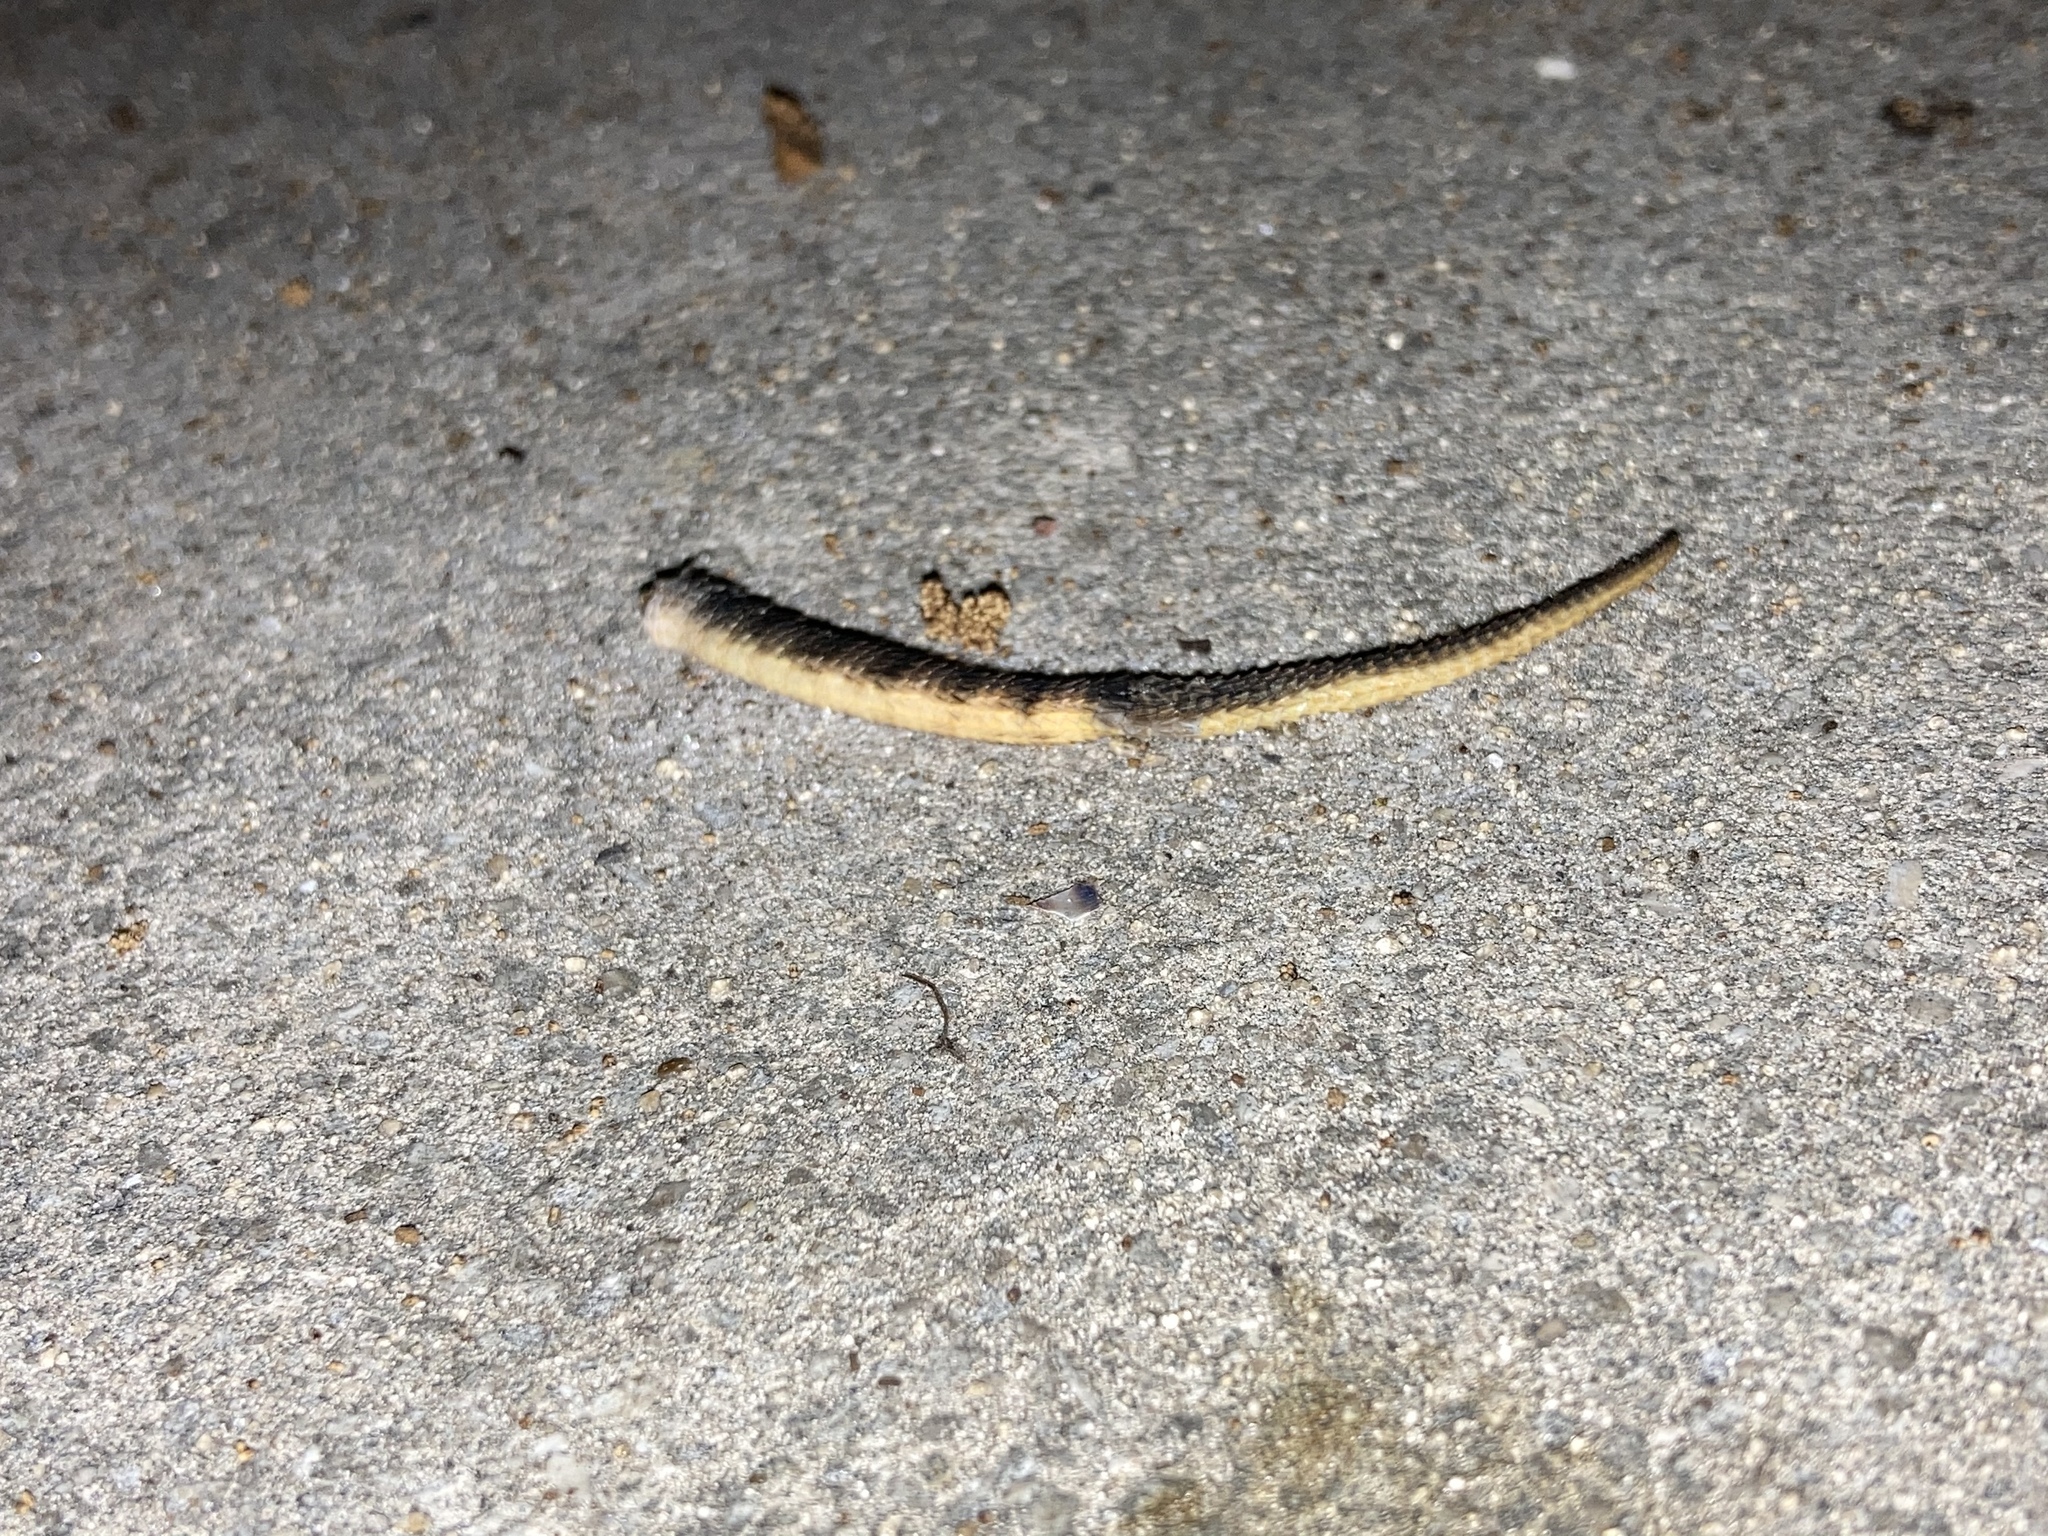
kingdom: Animalia
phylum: Chordata
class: Squamata
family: Leiocephalidae
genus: Leiocephalus
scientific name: Leiocephalus carinatus
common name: Northern curly-tailed lizard
